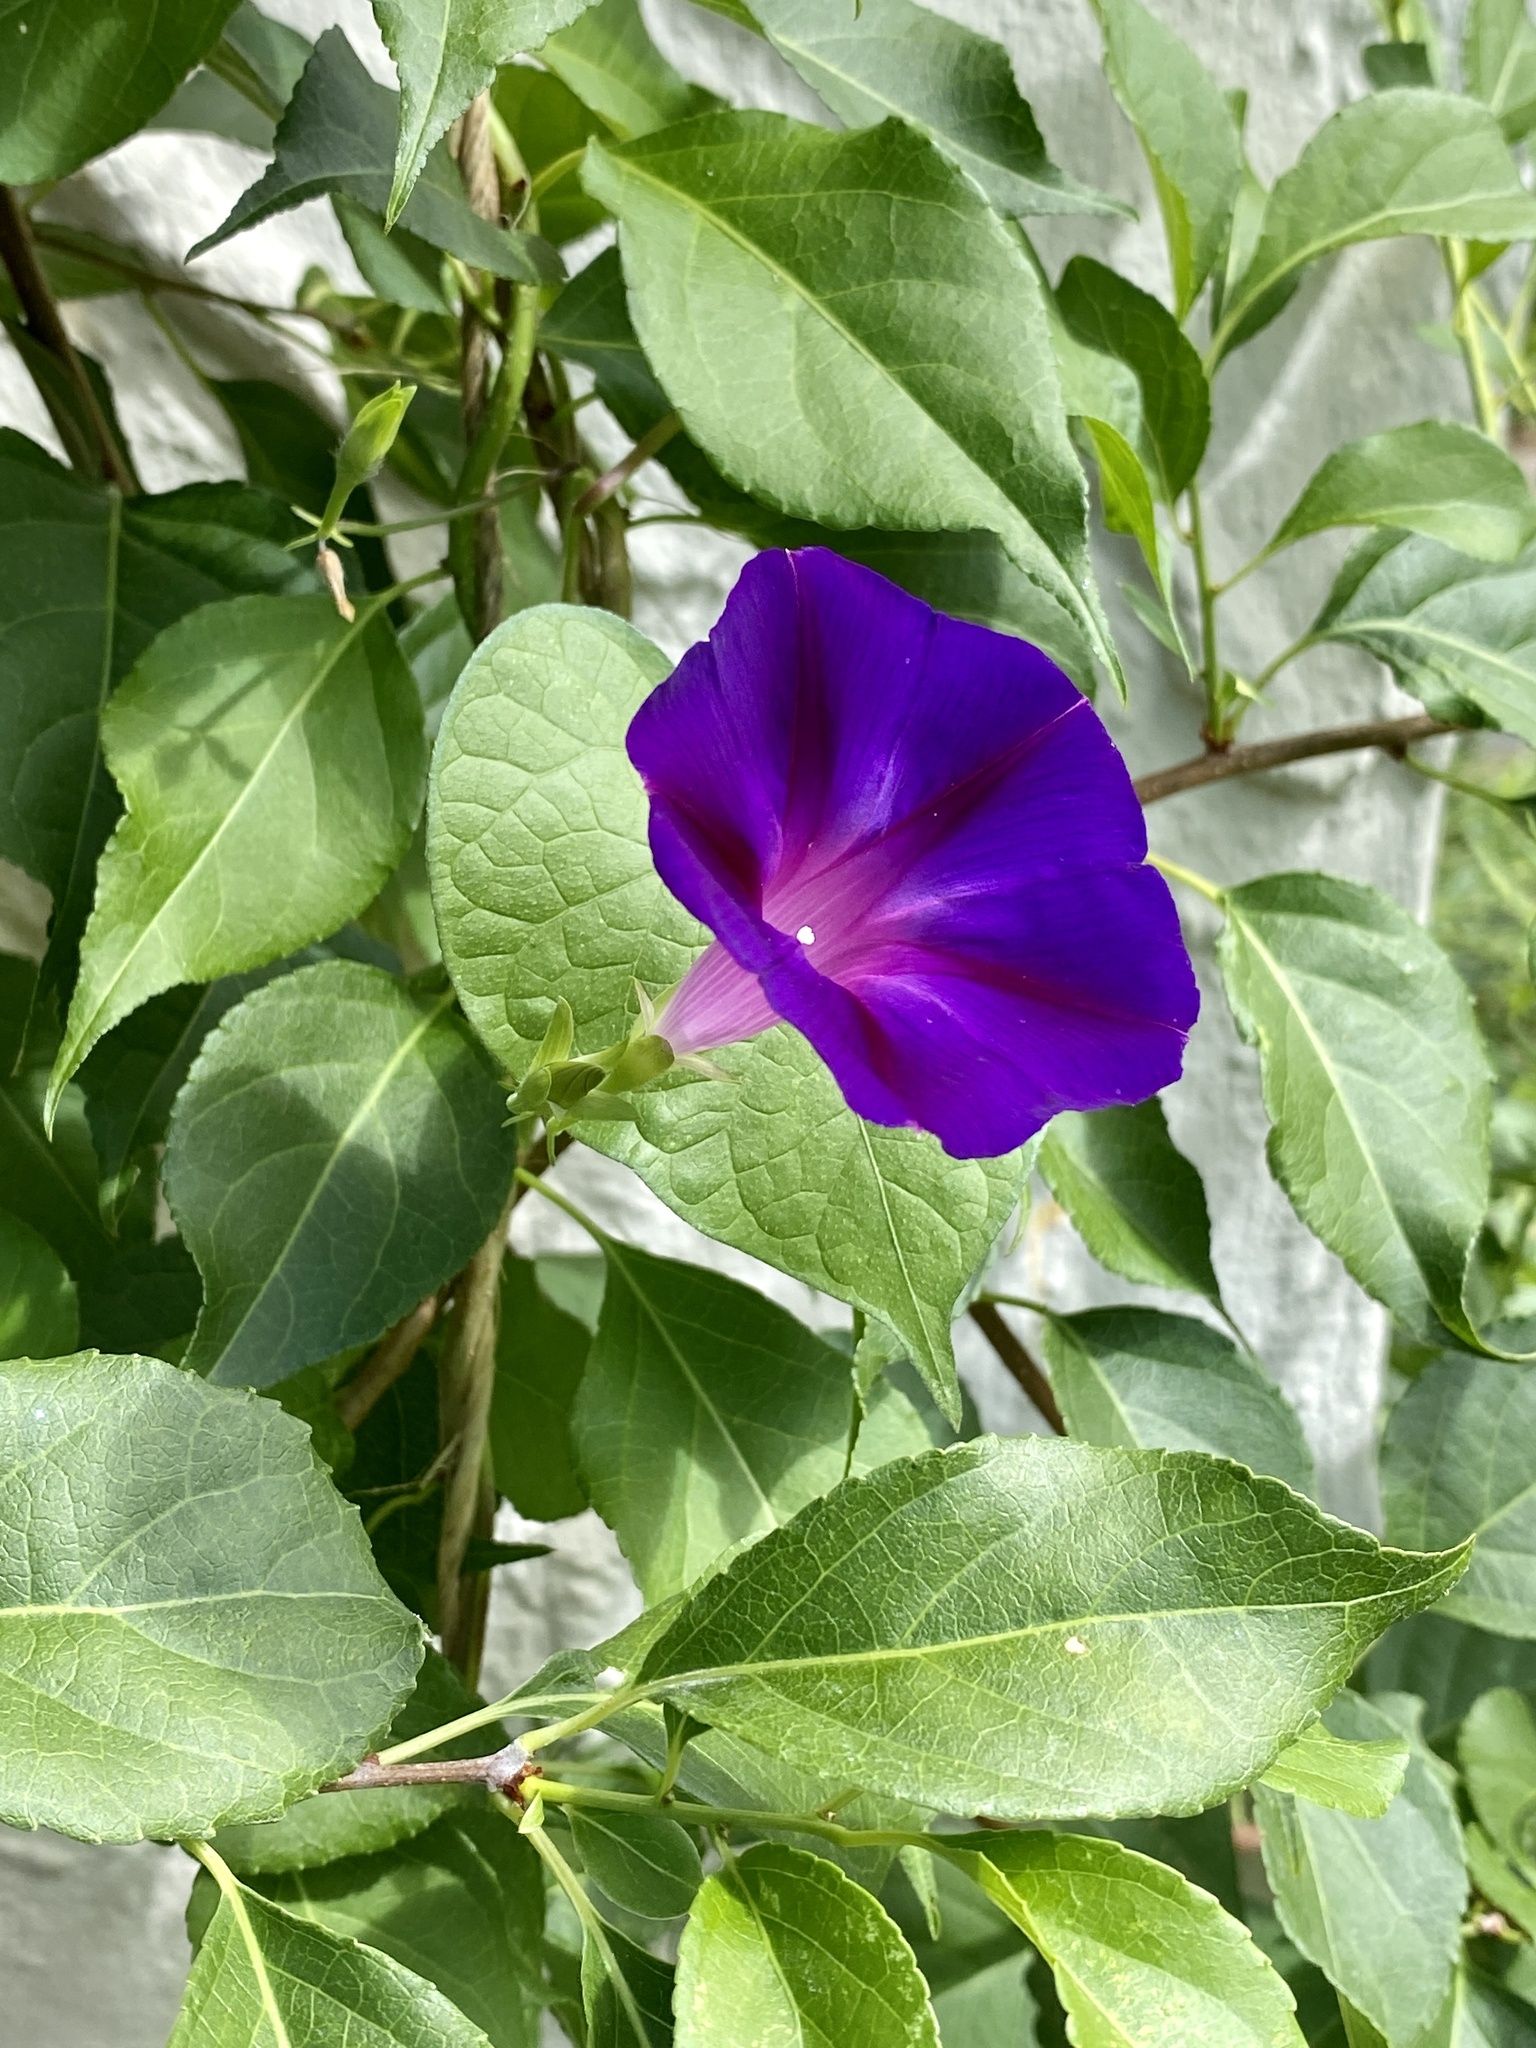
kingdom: Plantae
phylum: Tracheophyta
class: Magnoliopsida
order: Solanales
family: Convolvulaceae
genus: Ipomoea
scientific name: Ipomoea purpurea
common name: Common morning-glory
